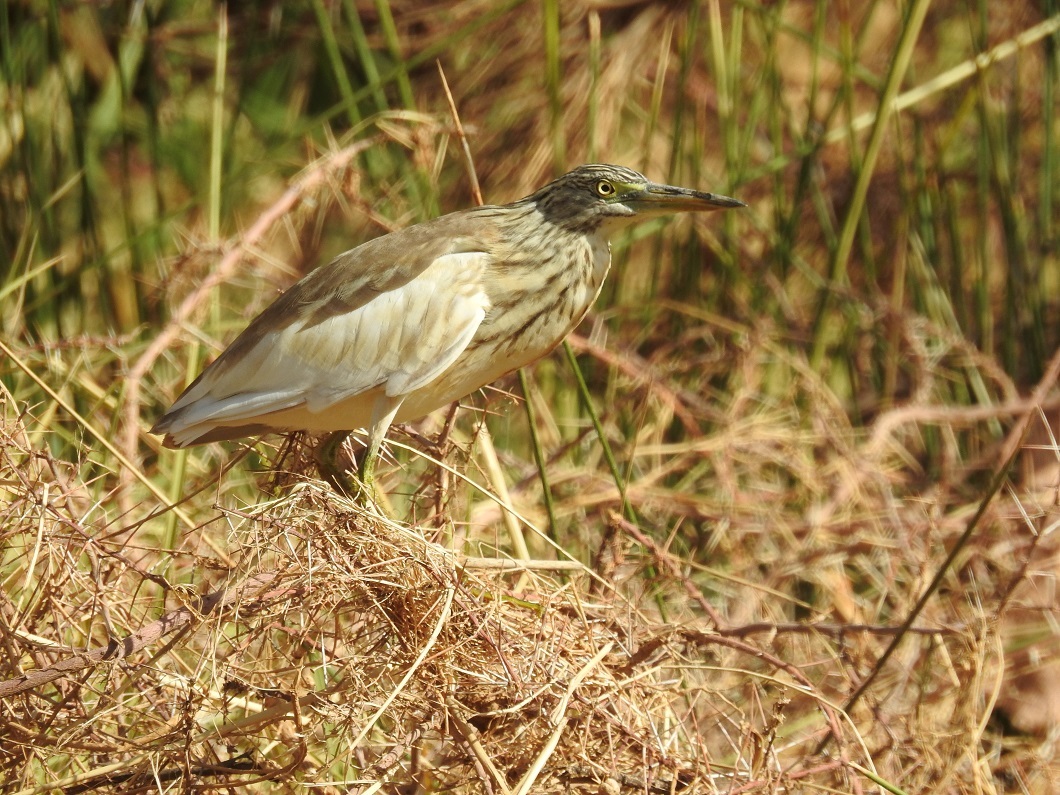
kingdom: Animalia
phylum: Chordata
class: Aves
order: Pelecaniformes
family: Ardeidae
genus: Ardeola
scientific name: Ardeola ralloides
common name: Squacco heron
